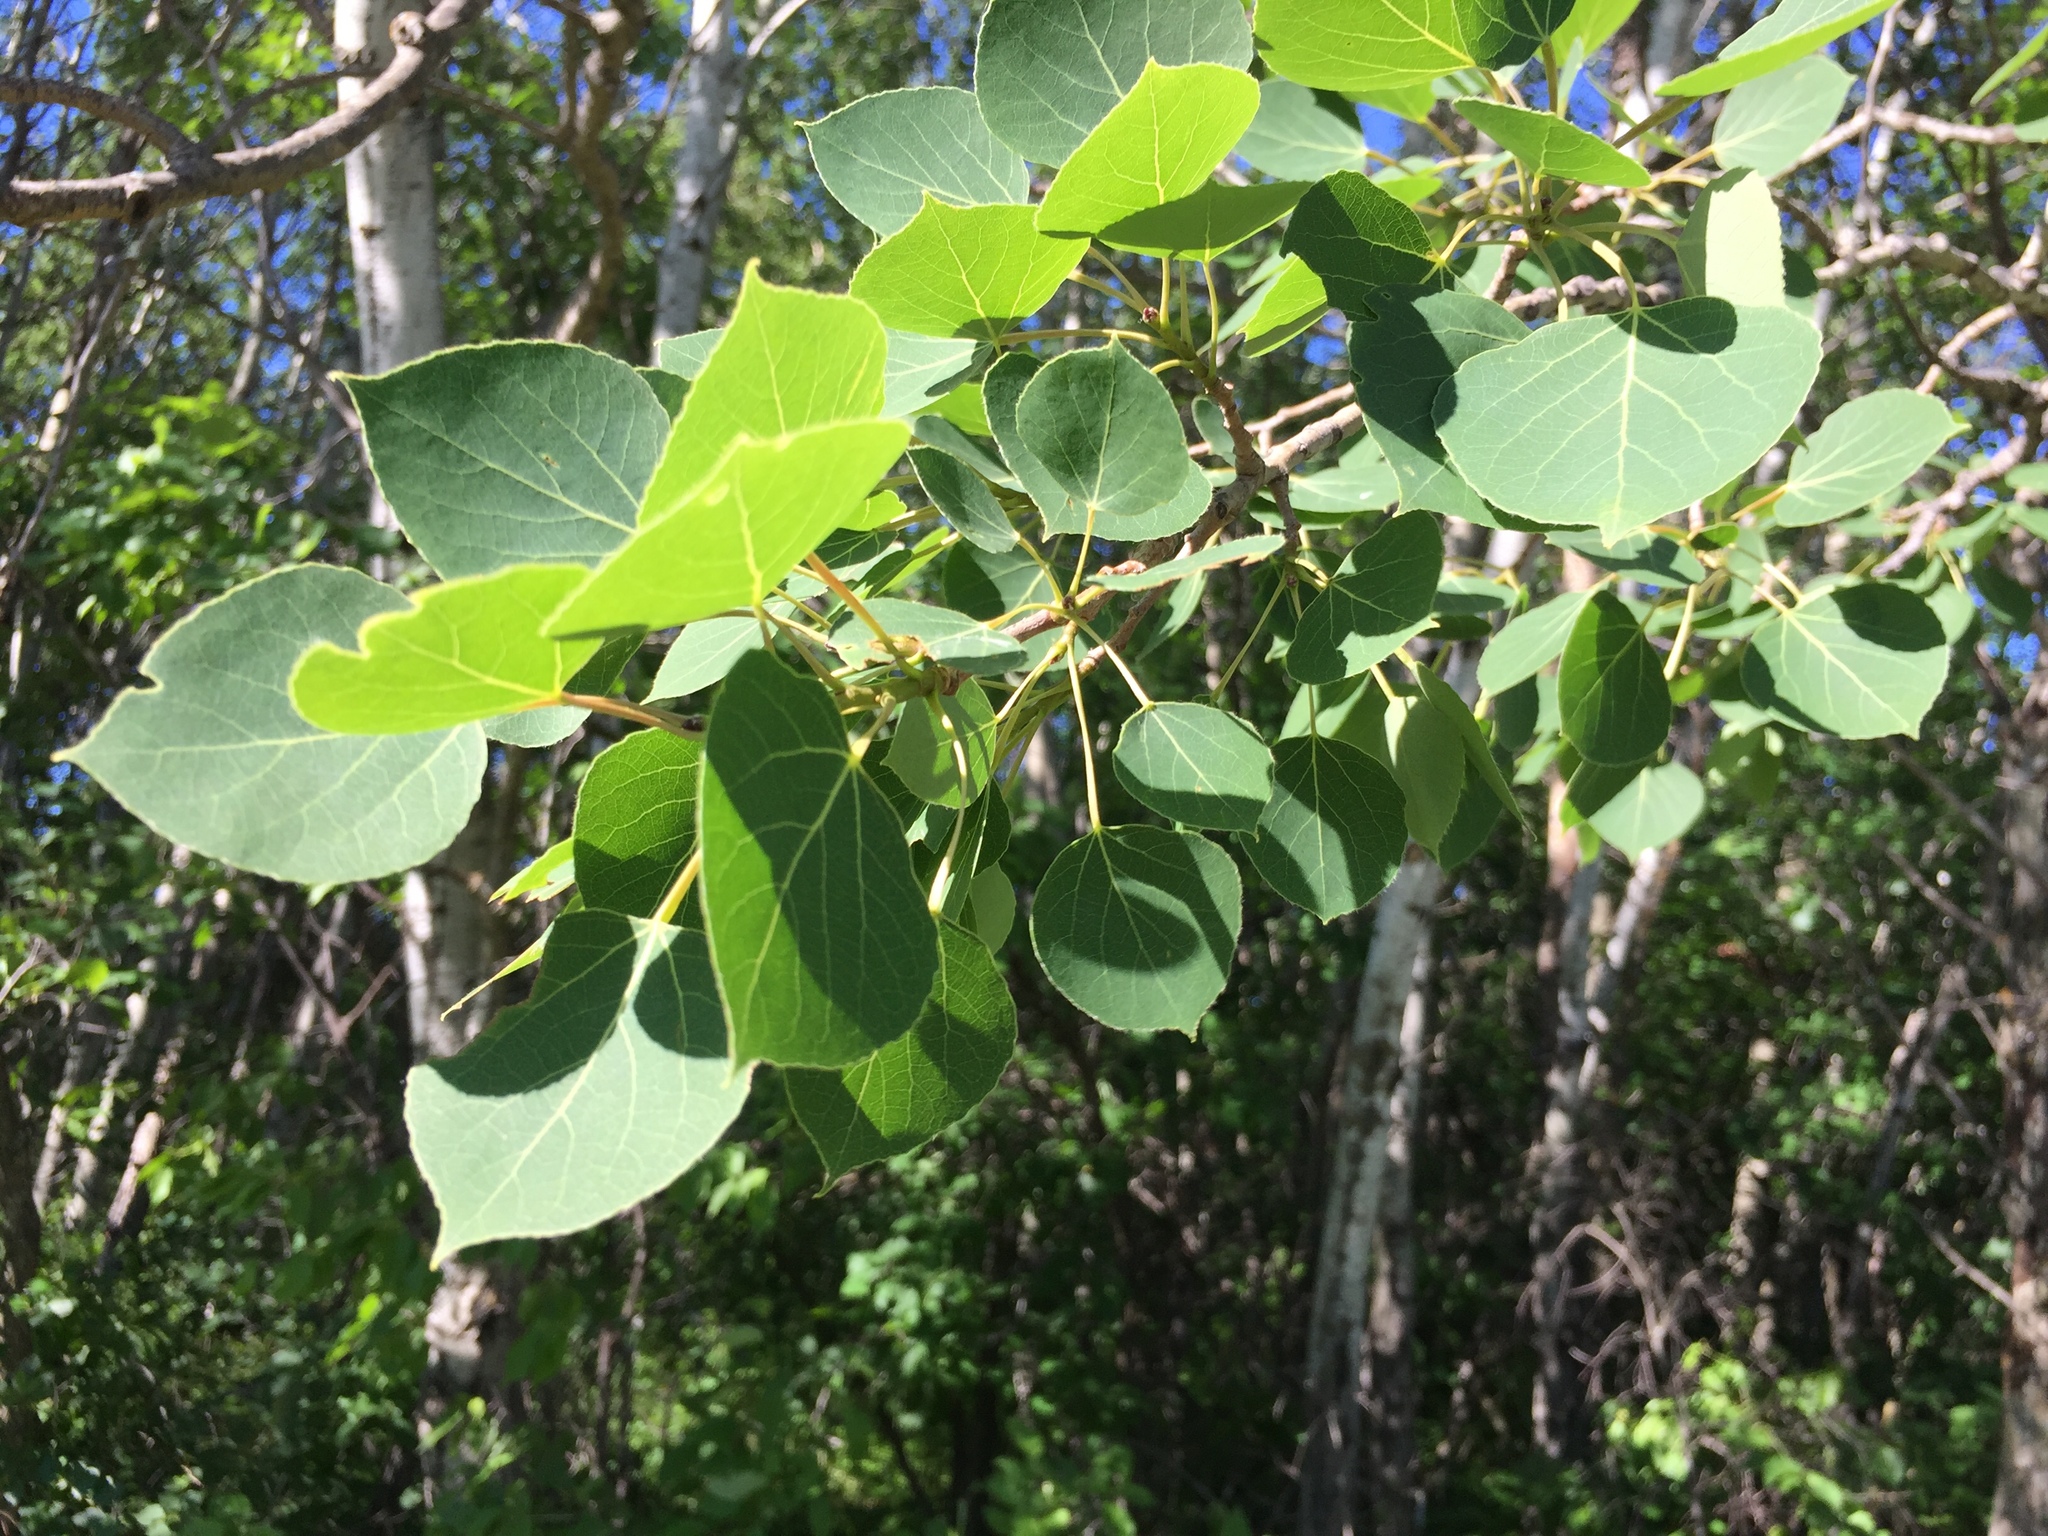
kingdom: Plantae
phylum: Tracheophyta
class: Magnoliopsida
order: Malpighiales
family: Salicaceae
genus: Populus
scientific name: Populus tremuloides
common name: Quaking aspen
